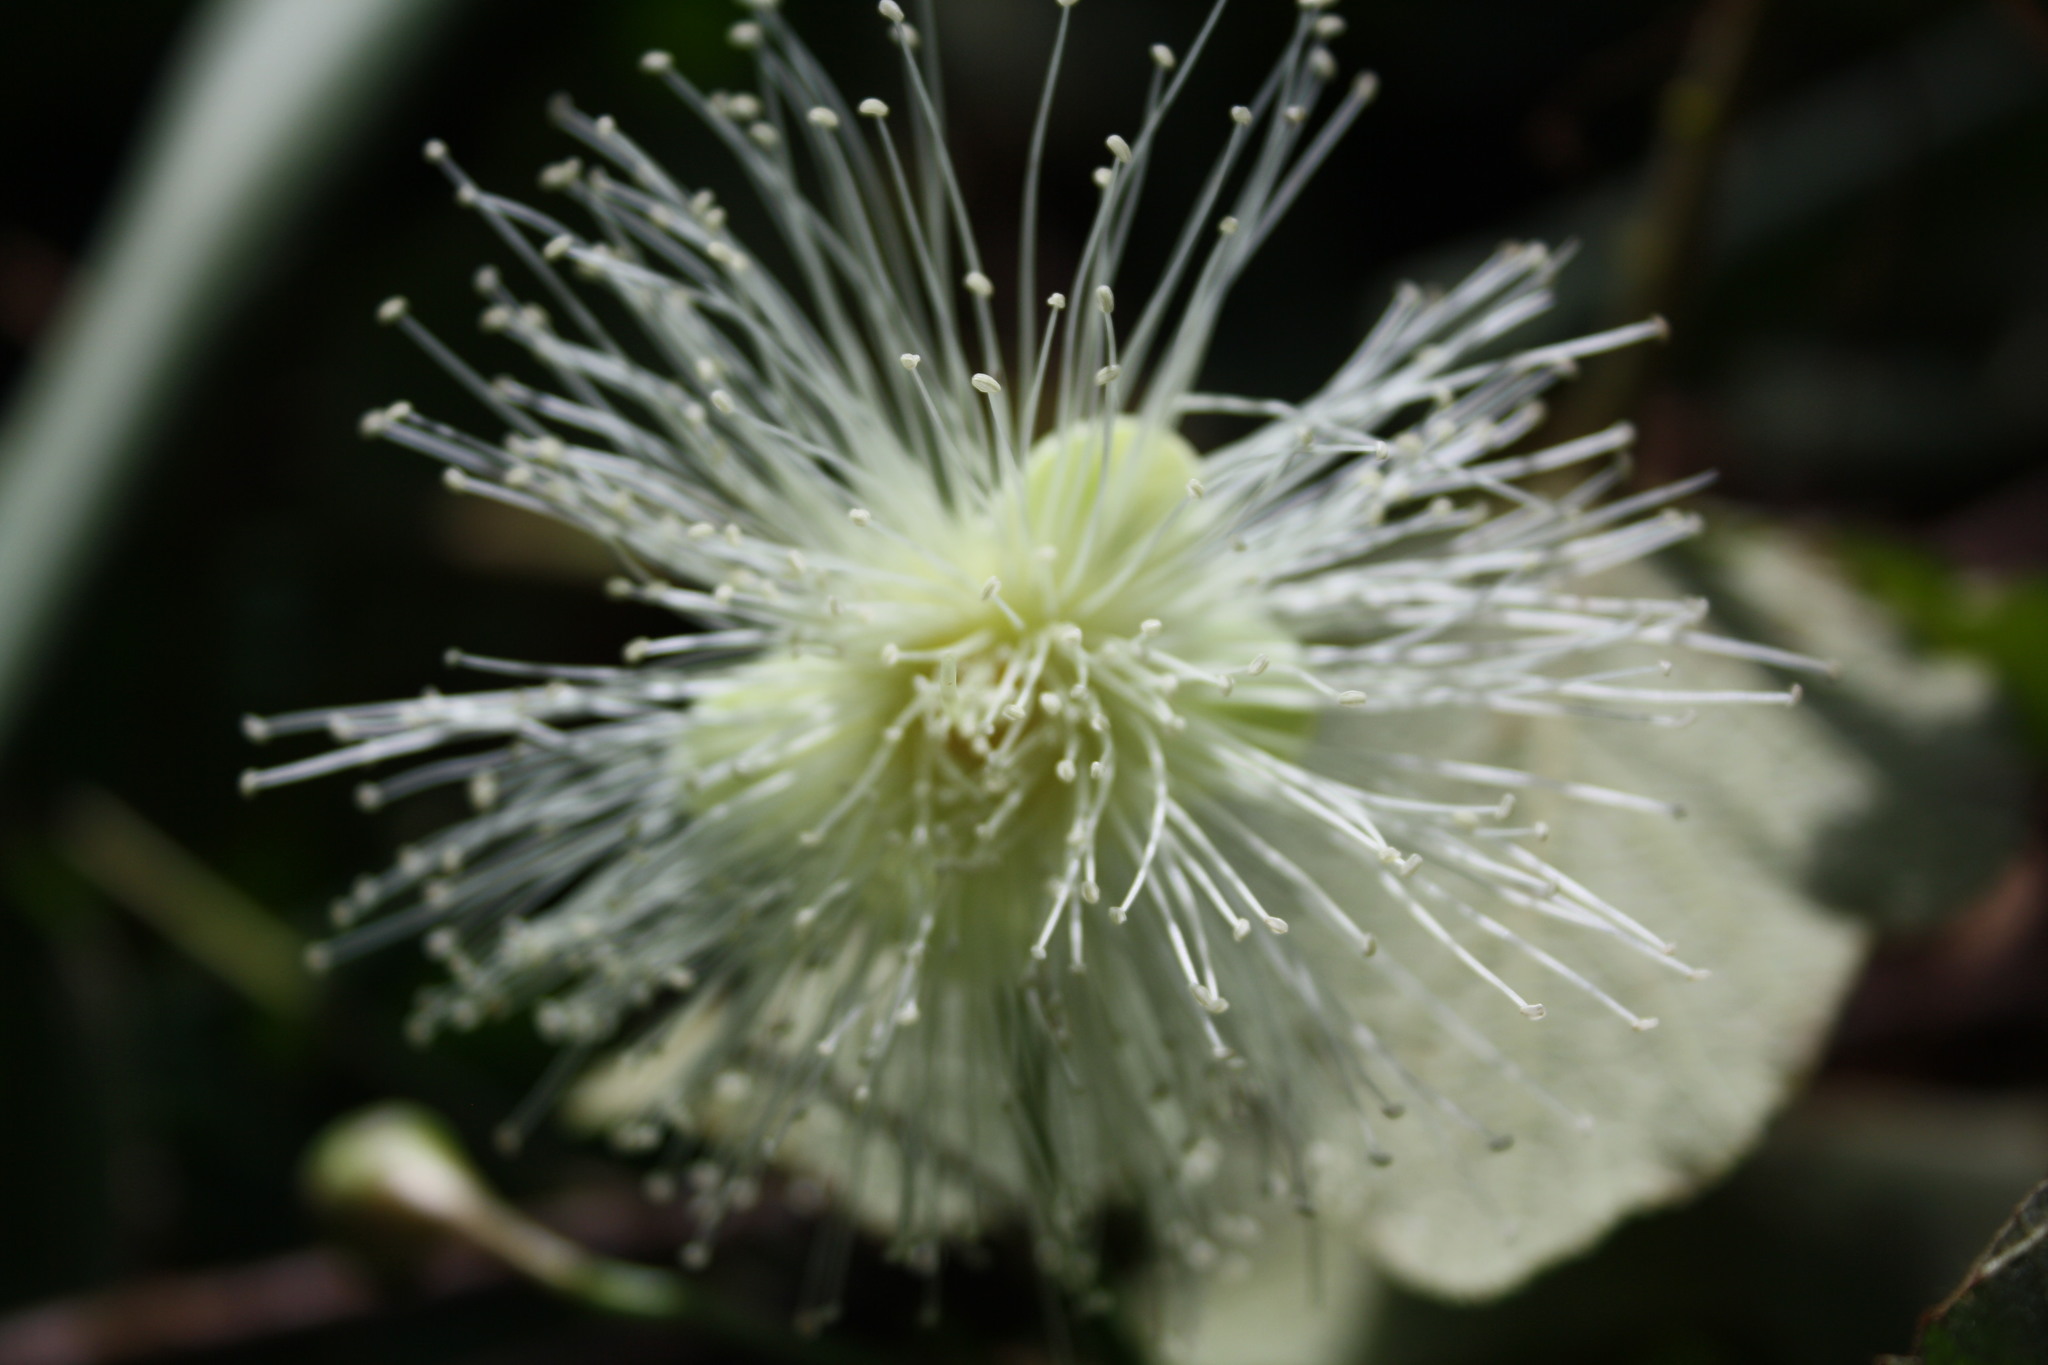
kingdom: Plantae
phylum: Tracheophyta
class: Magnoliopsida
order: Myrtales
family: Myrtaceae
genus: Syzygium
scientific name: Syzygium jambos
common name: Malabar plum
